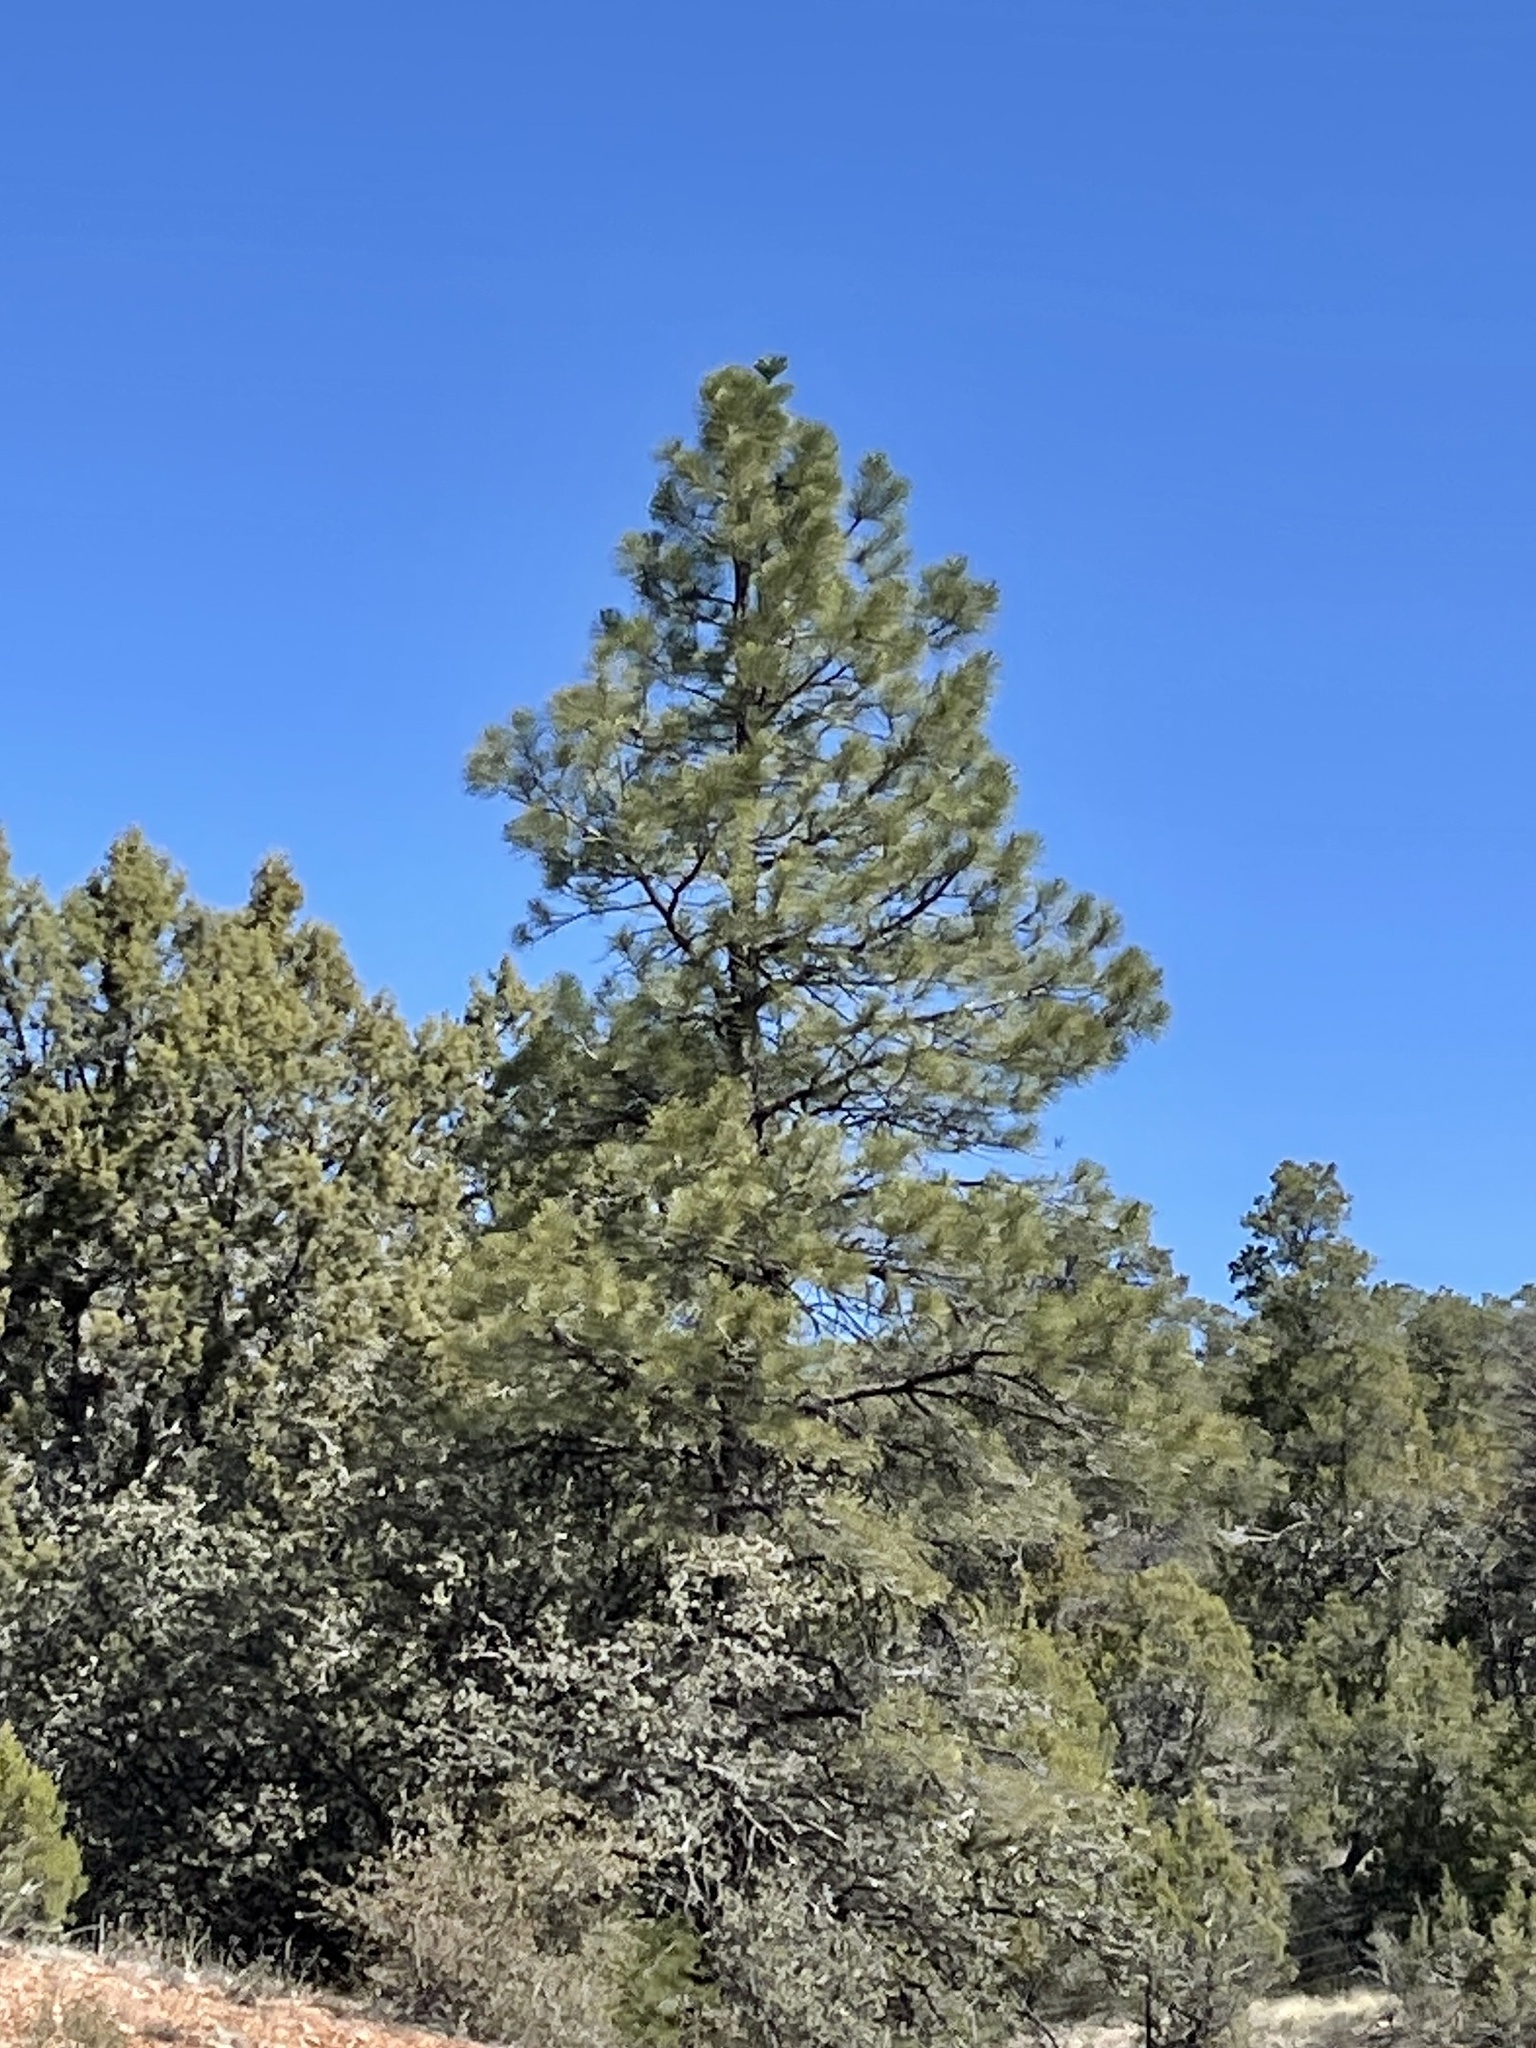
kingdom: Plantae
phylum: Tracheophyta
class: Pinopsida
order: Pinales
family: Pinaceae
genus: Pinus
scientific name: Pinus ponderosa
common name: Western yellow-pine
